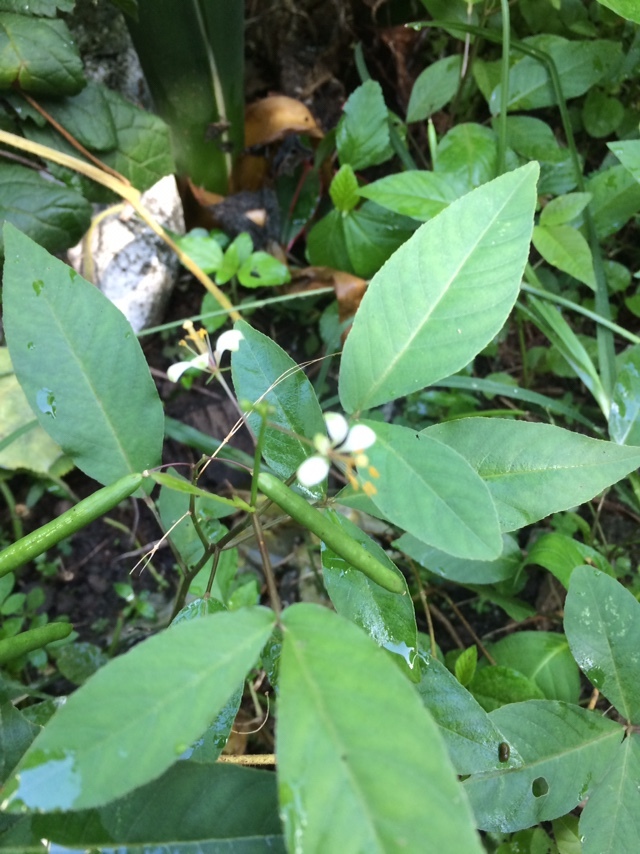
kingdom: Plantae
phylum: Tracheophyta
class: Magnoliopsida
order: Brassicales
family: Cleomaceae
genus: Cleoserrata
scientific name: Cleoserrata serrata
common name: Toothed spiderflower
